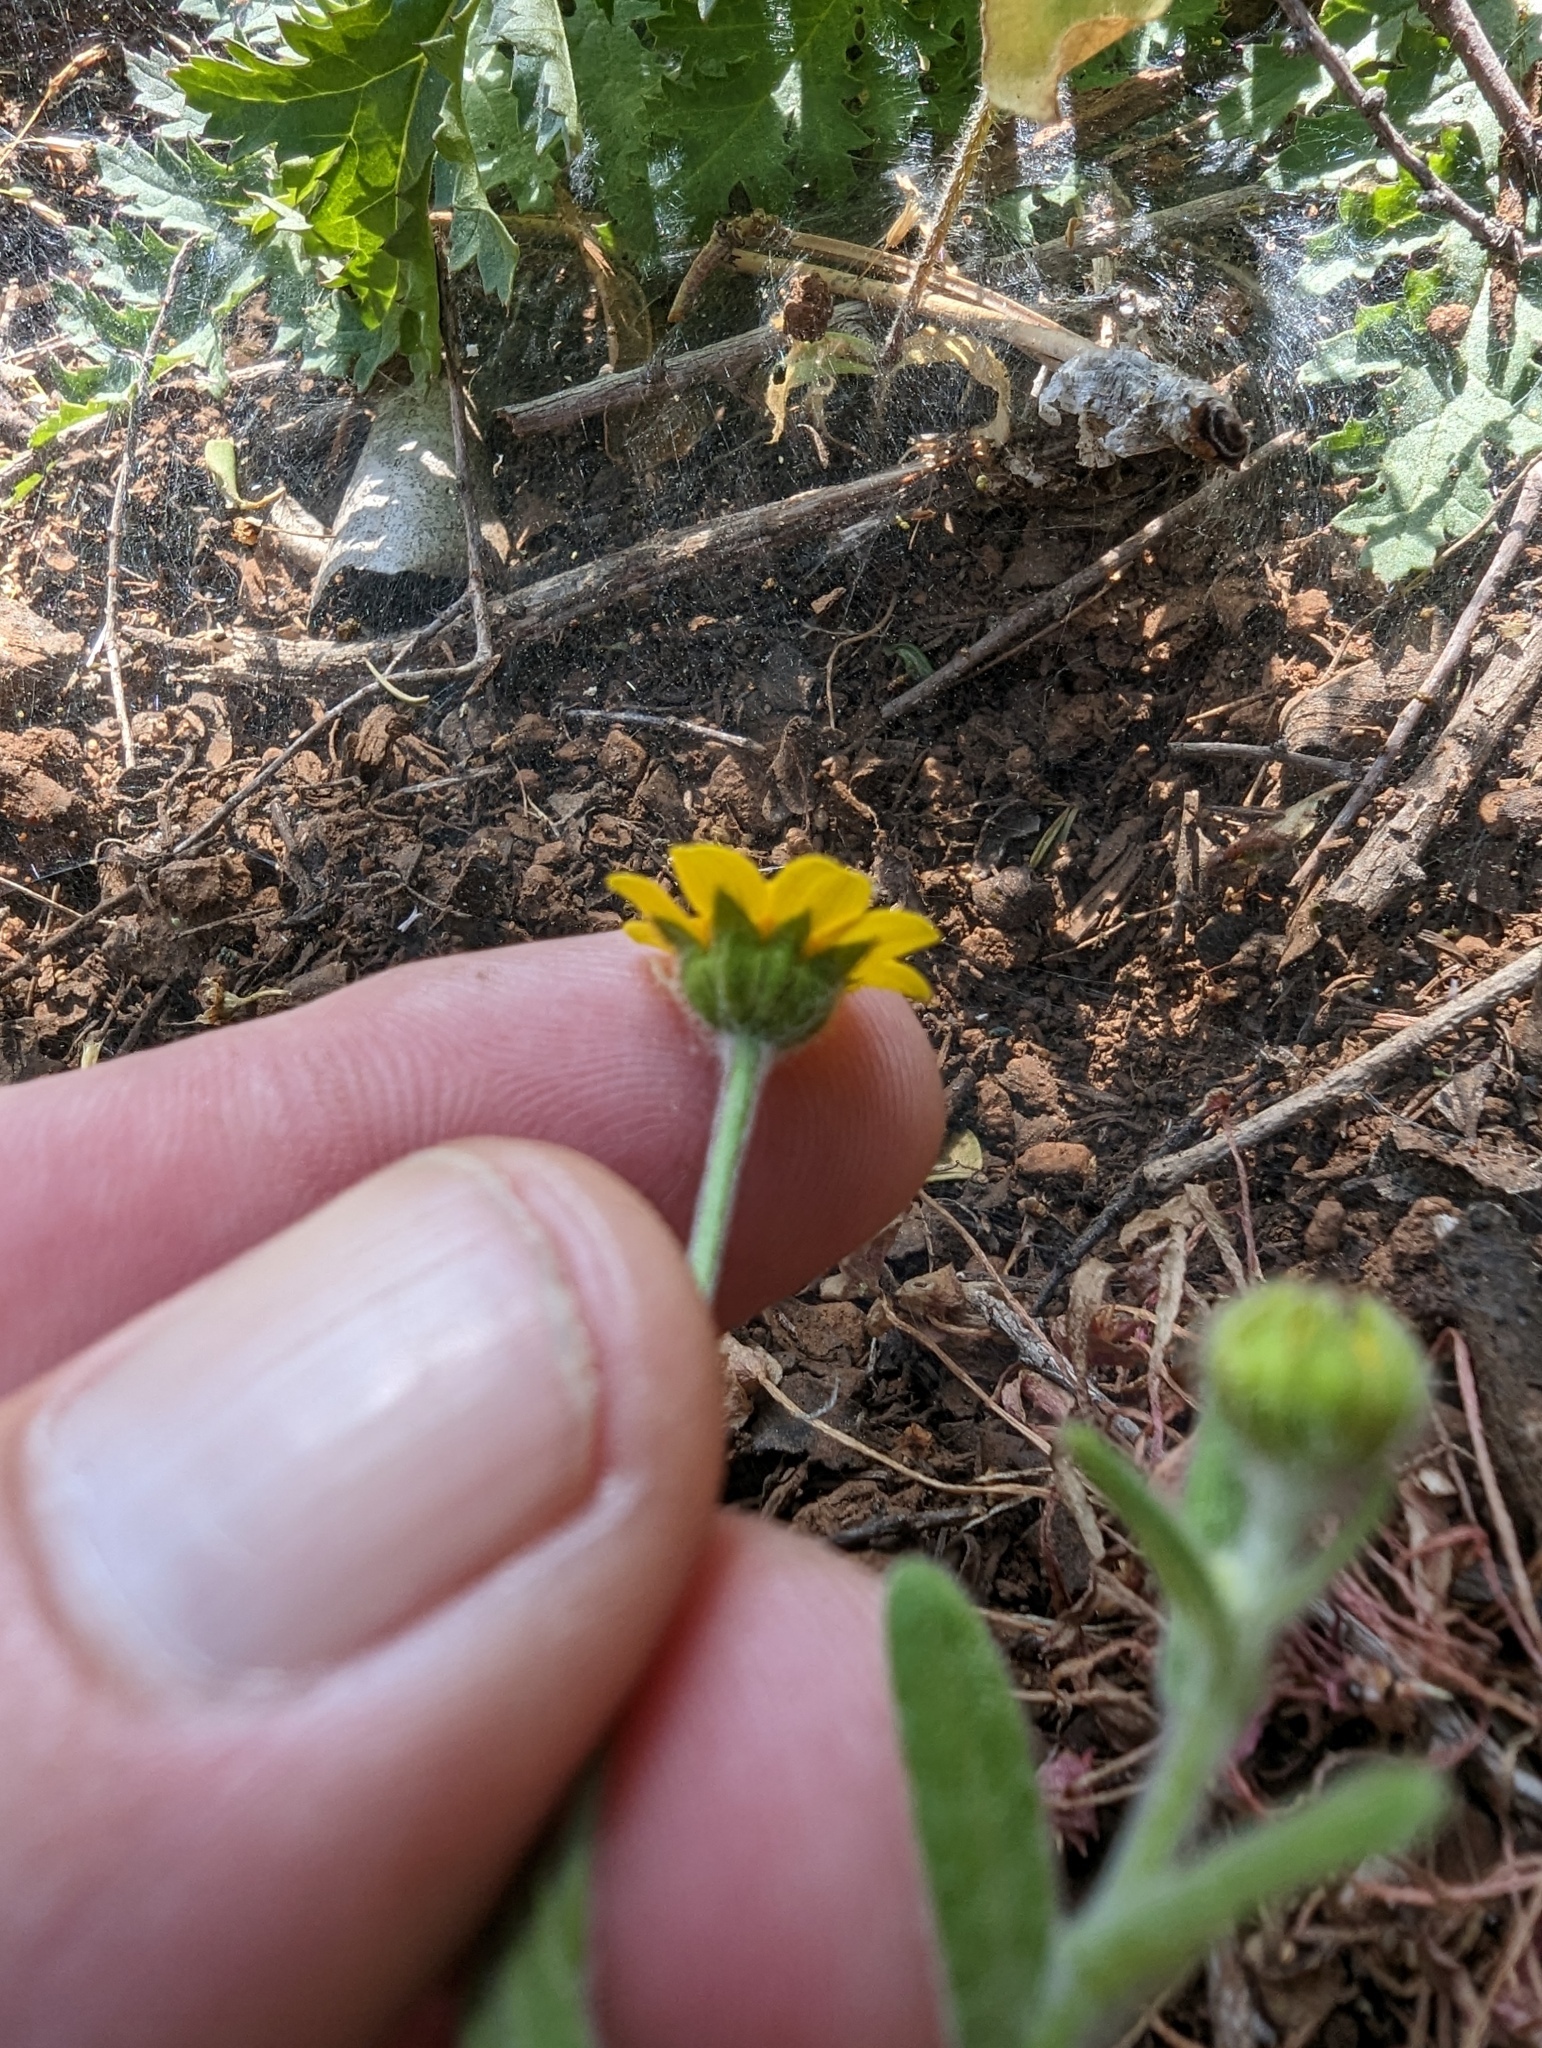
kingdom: Plantae
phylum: Tracheophyta
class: Magnoliopsida
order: Asterales
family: Asteraceae
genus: Monolopia
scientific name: Monolopia gracilens
